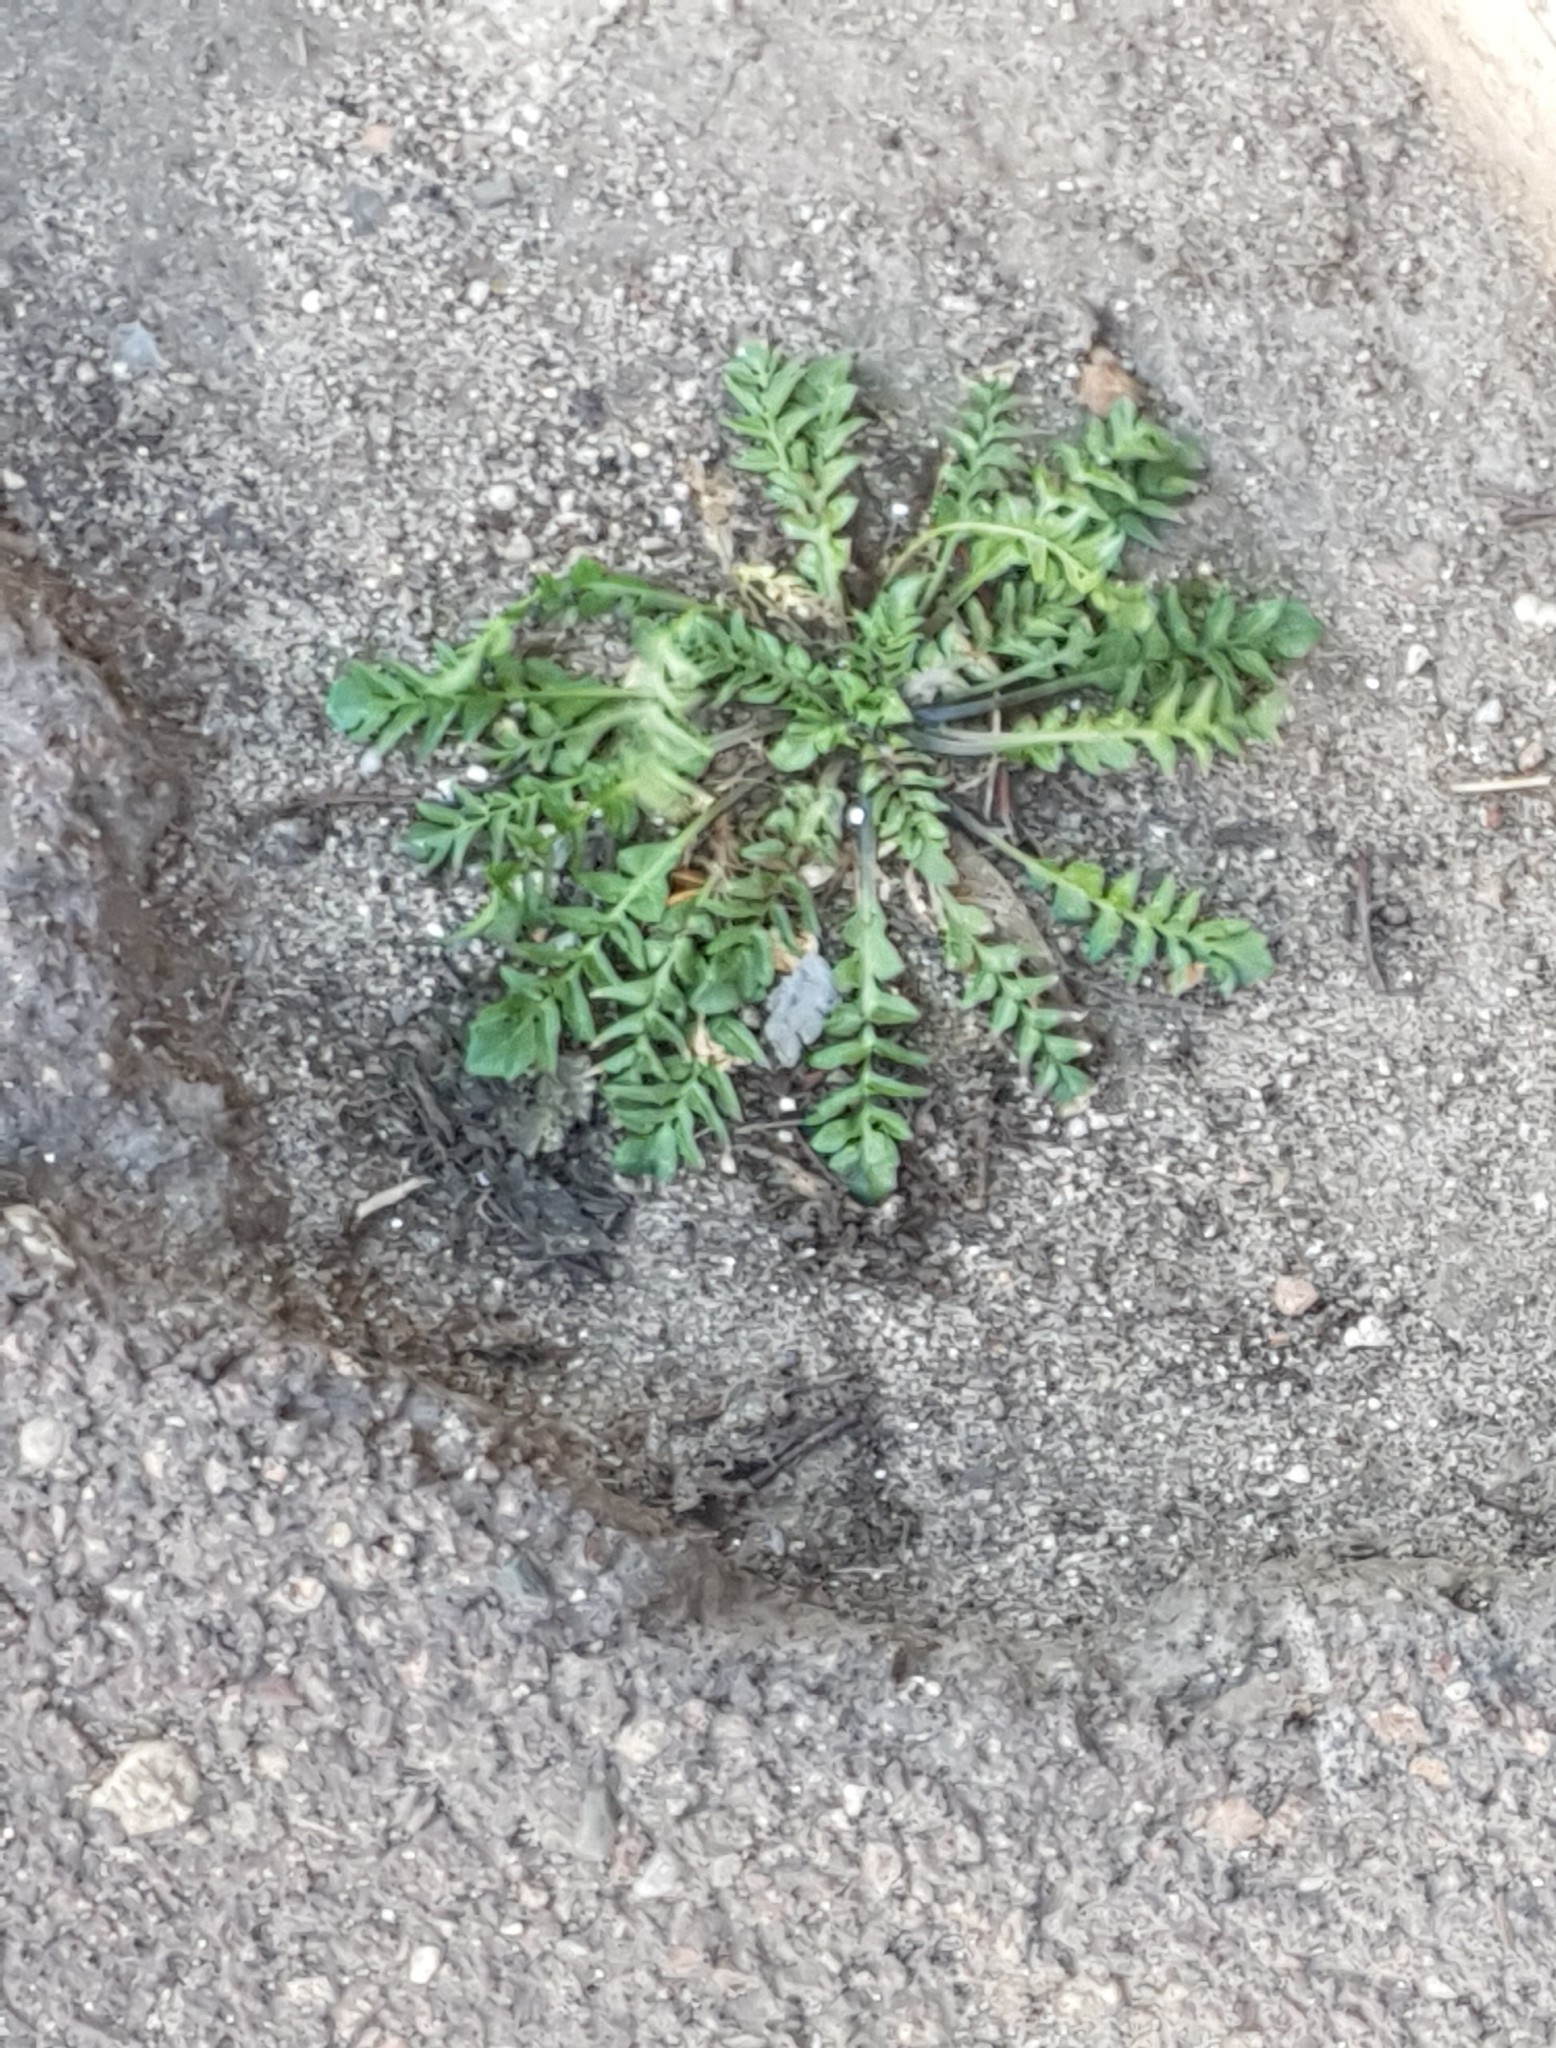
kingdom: Plantae
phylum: Tracheophyta
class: Magnoliopsida
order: Brassicales
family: Brassicaceae
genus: Capsella
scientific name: Capsella bursa-pastoris
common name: Shepherd's purse
